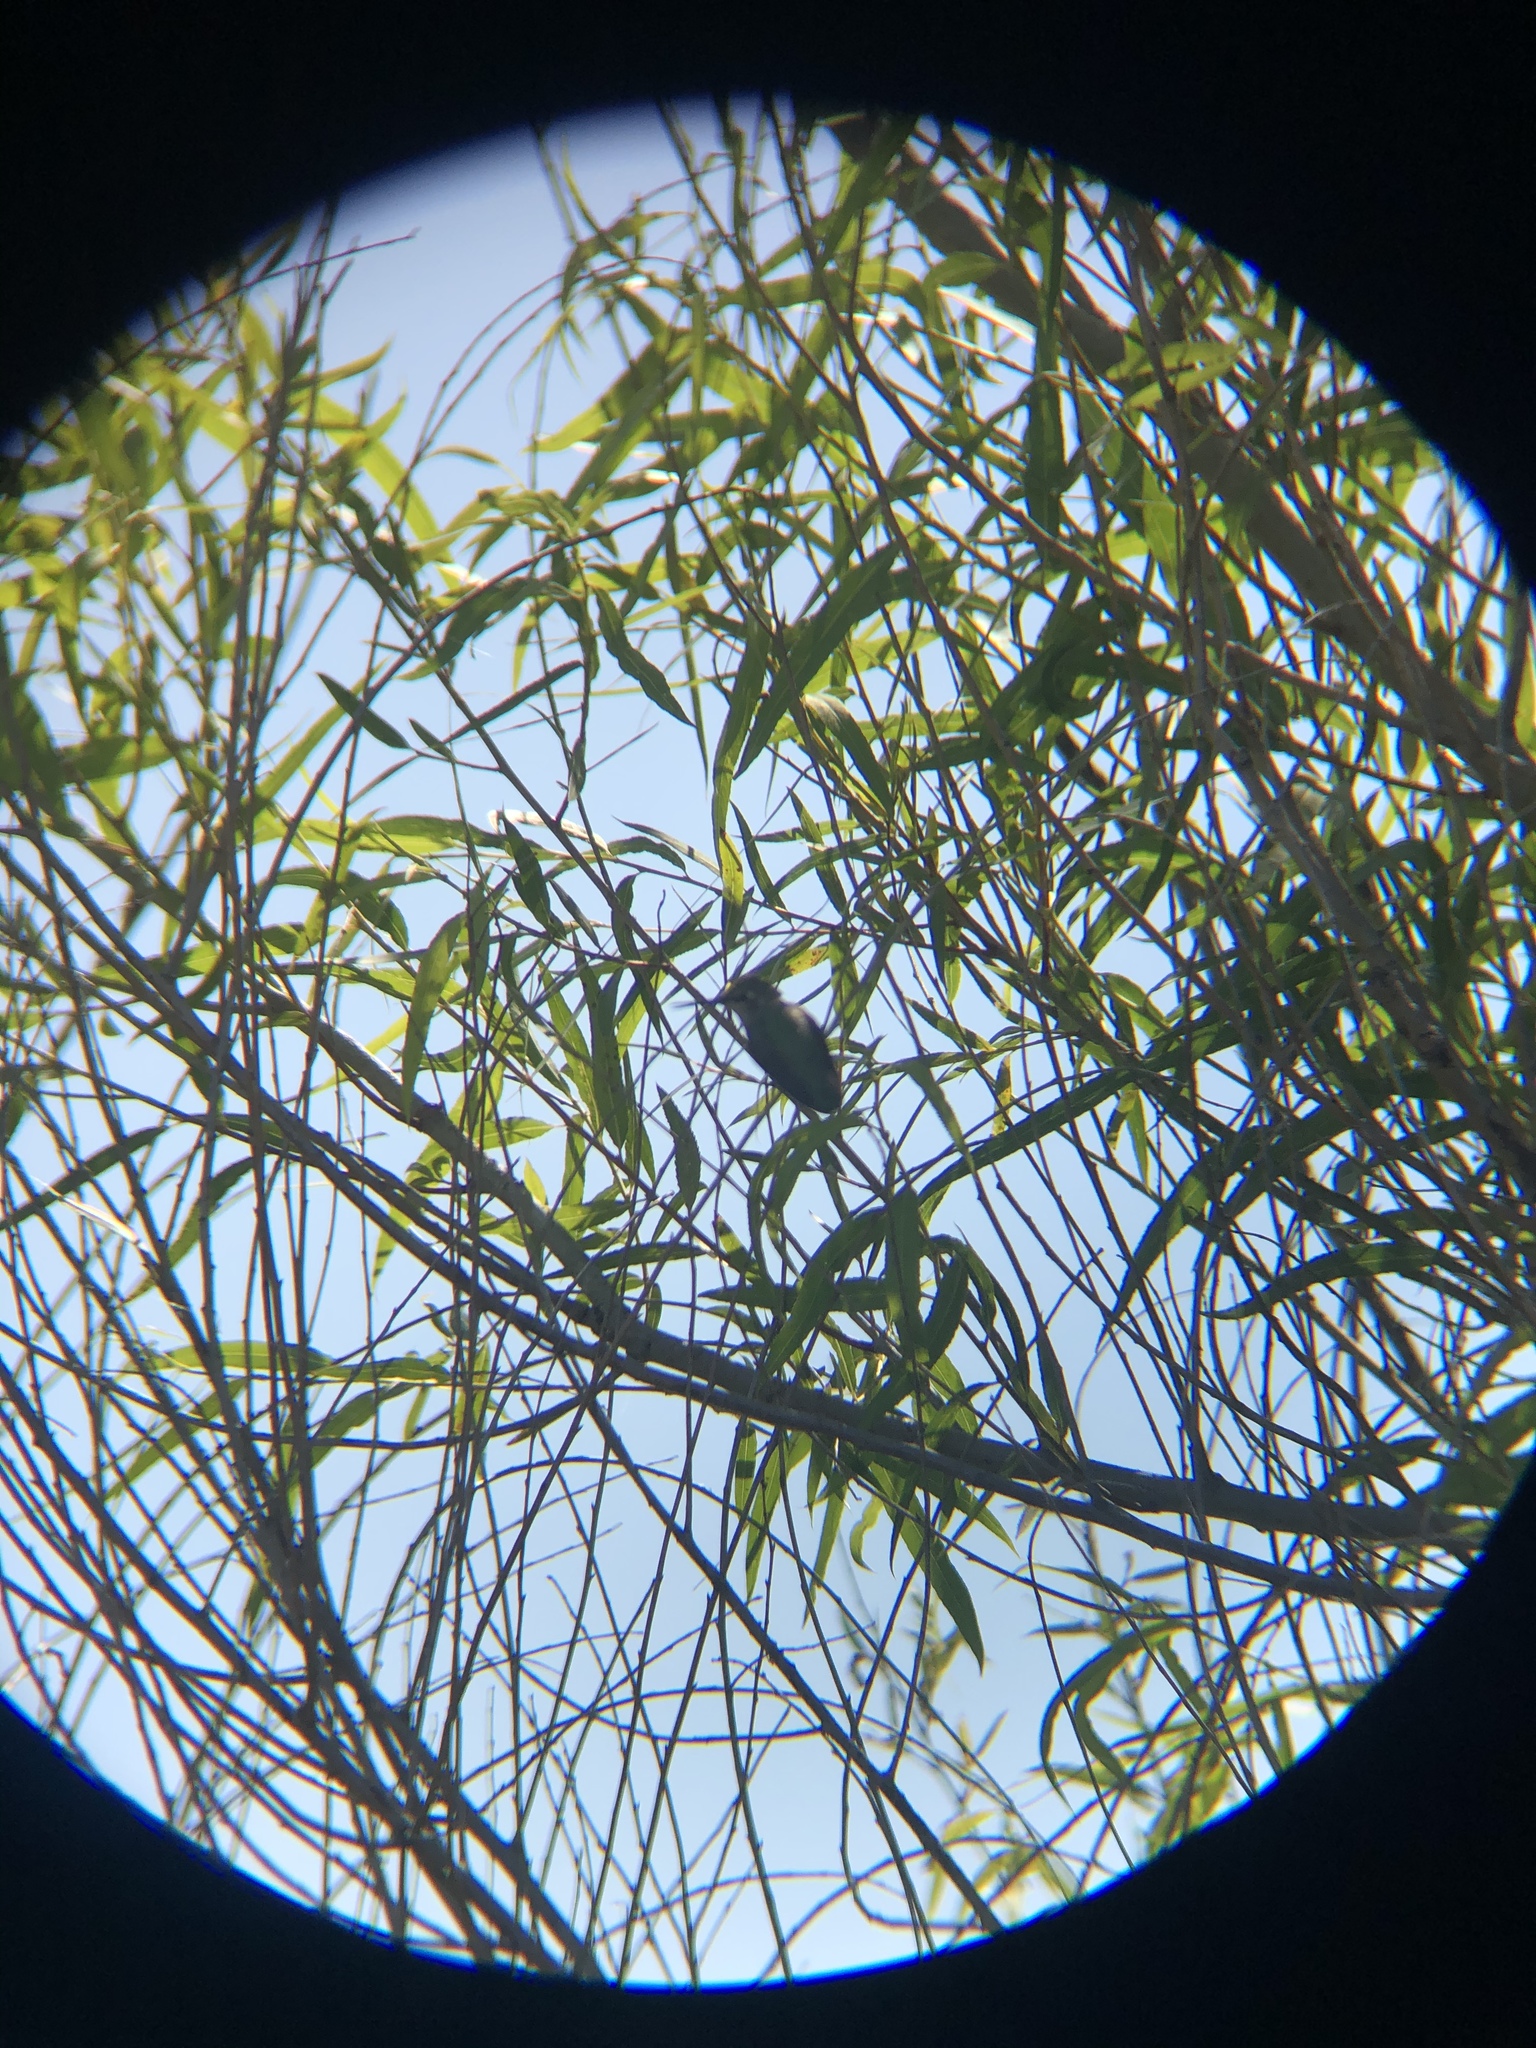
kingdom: Animalia
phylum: Chordata
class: Aves
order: Apodiformes
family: Trochilidae
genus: Archilochus
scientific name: Archilochus alexandri
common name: Black-chinned hummingbird
